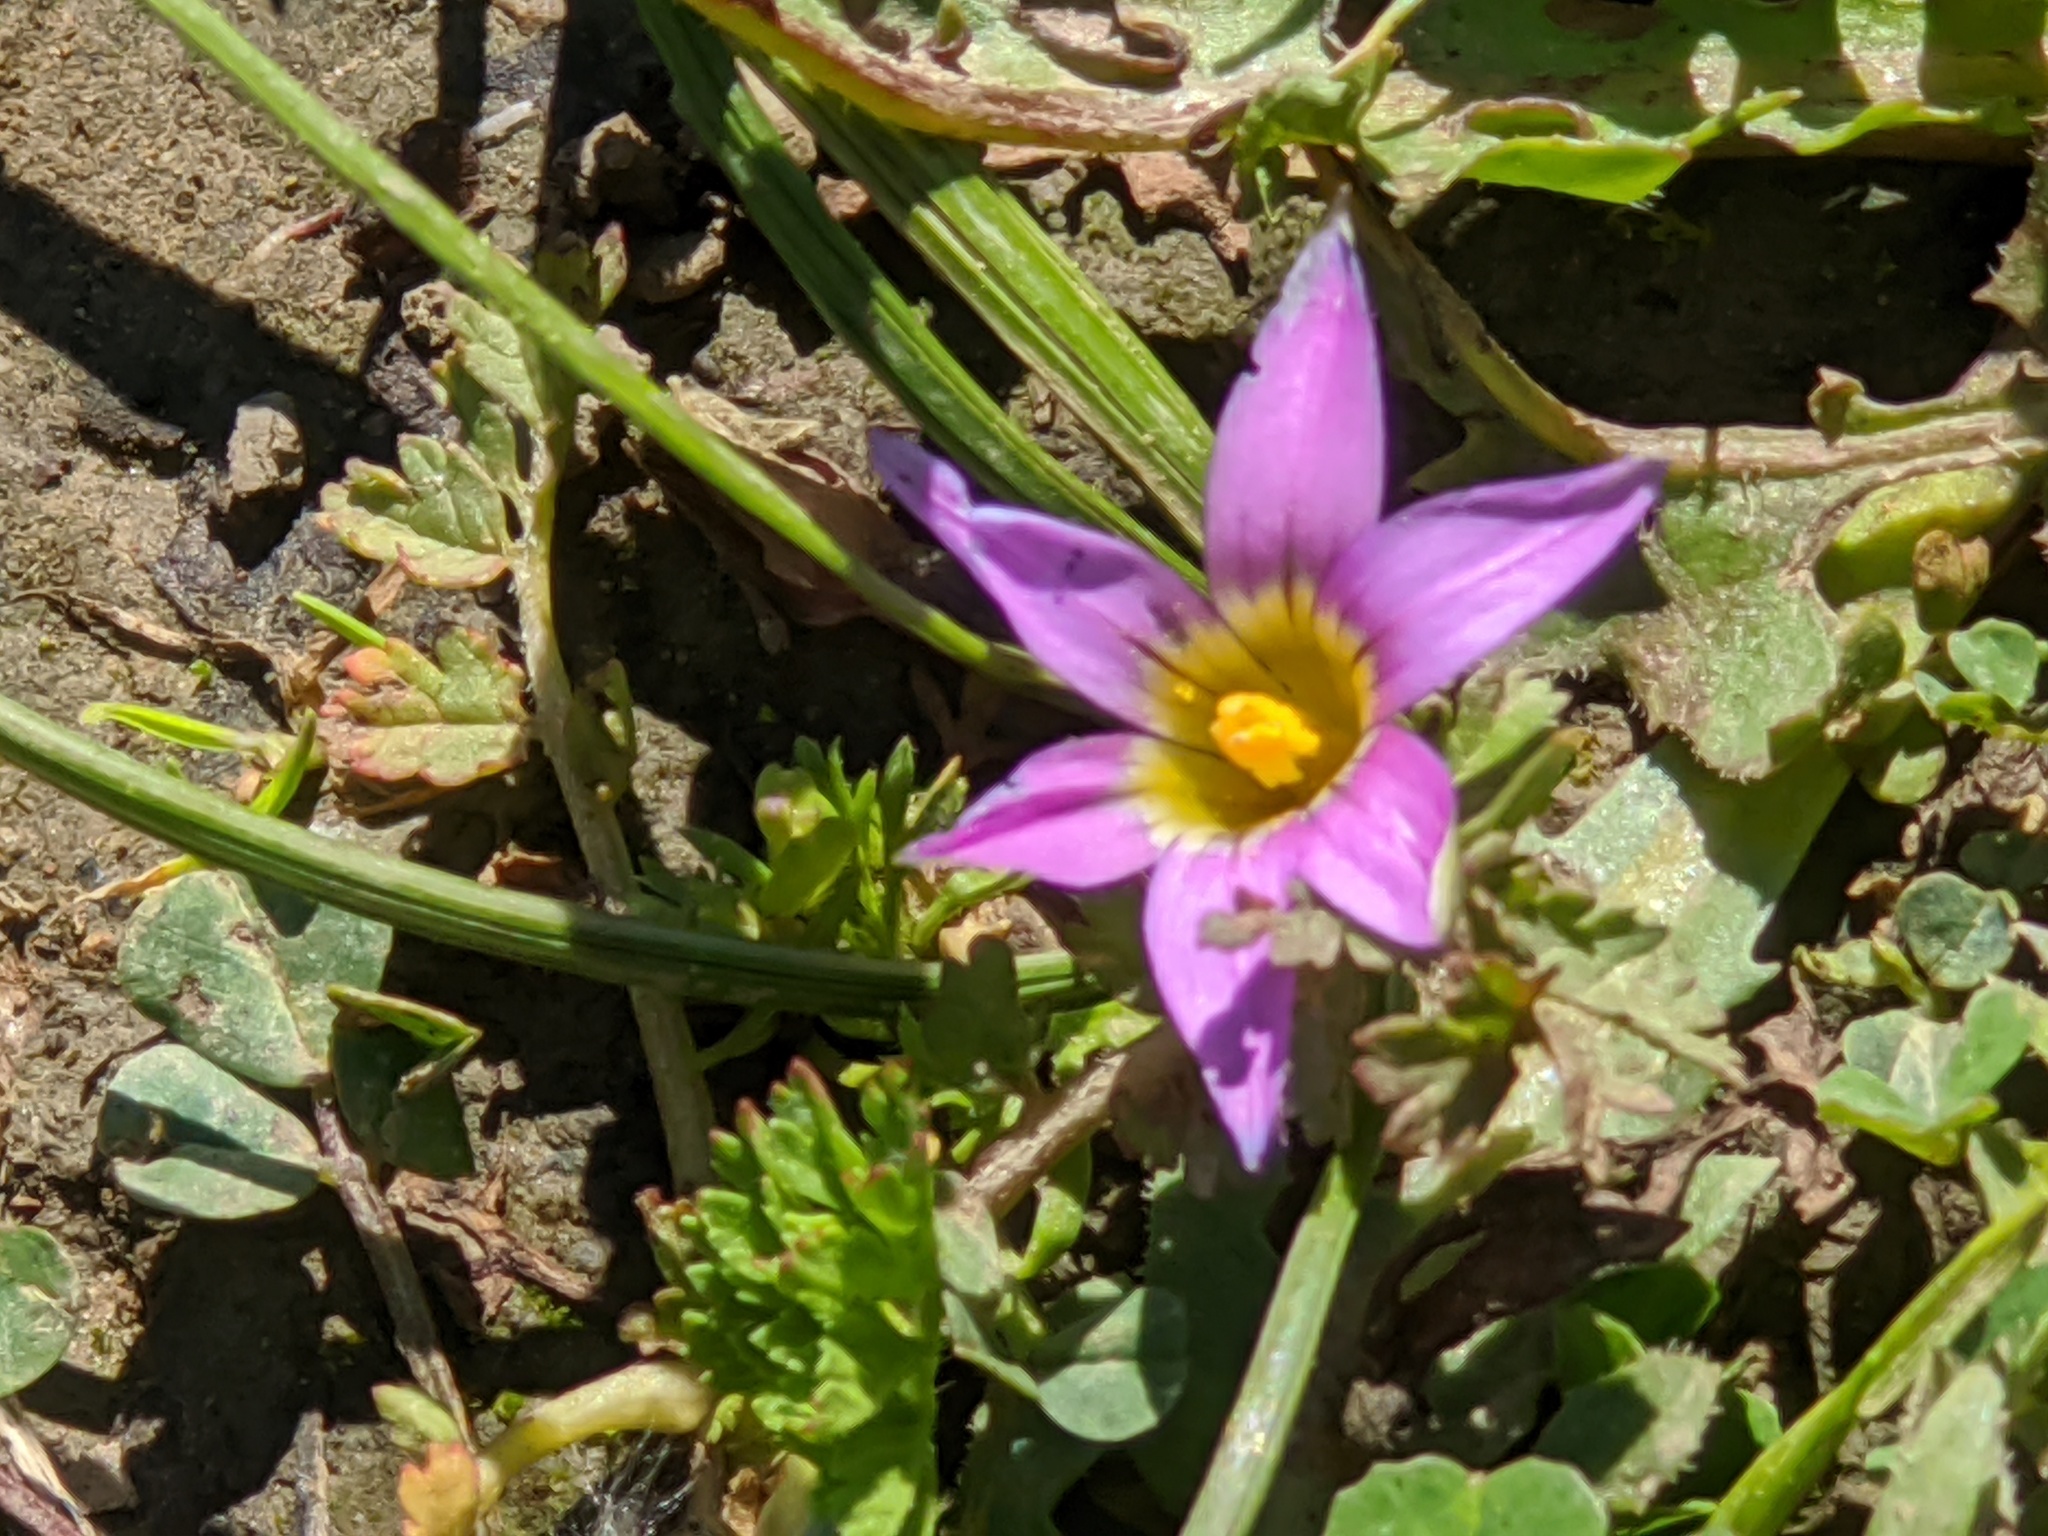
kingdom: Plantae
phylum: Tracheophyta
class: Liliopsida
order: Asparagales
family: Iridaceae
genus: Romulea
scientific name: Romulea rosea
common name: Oniongrass
